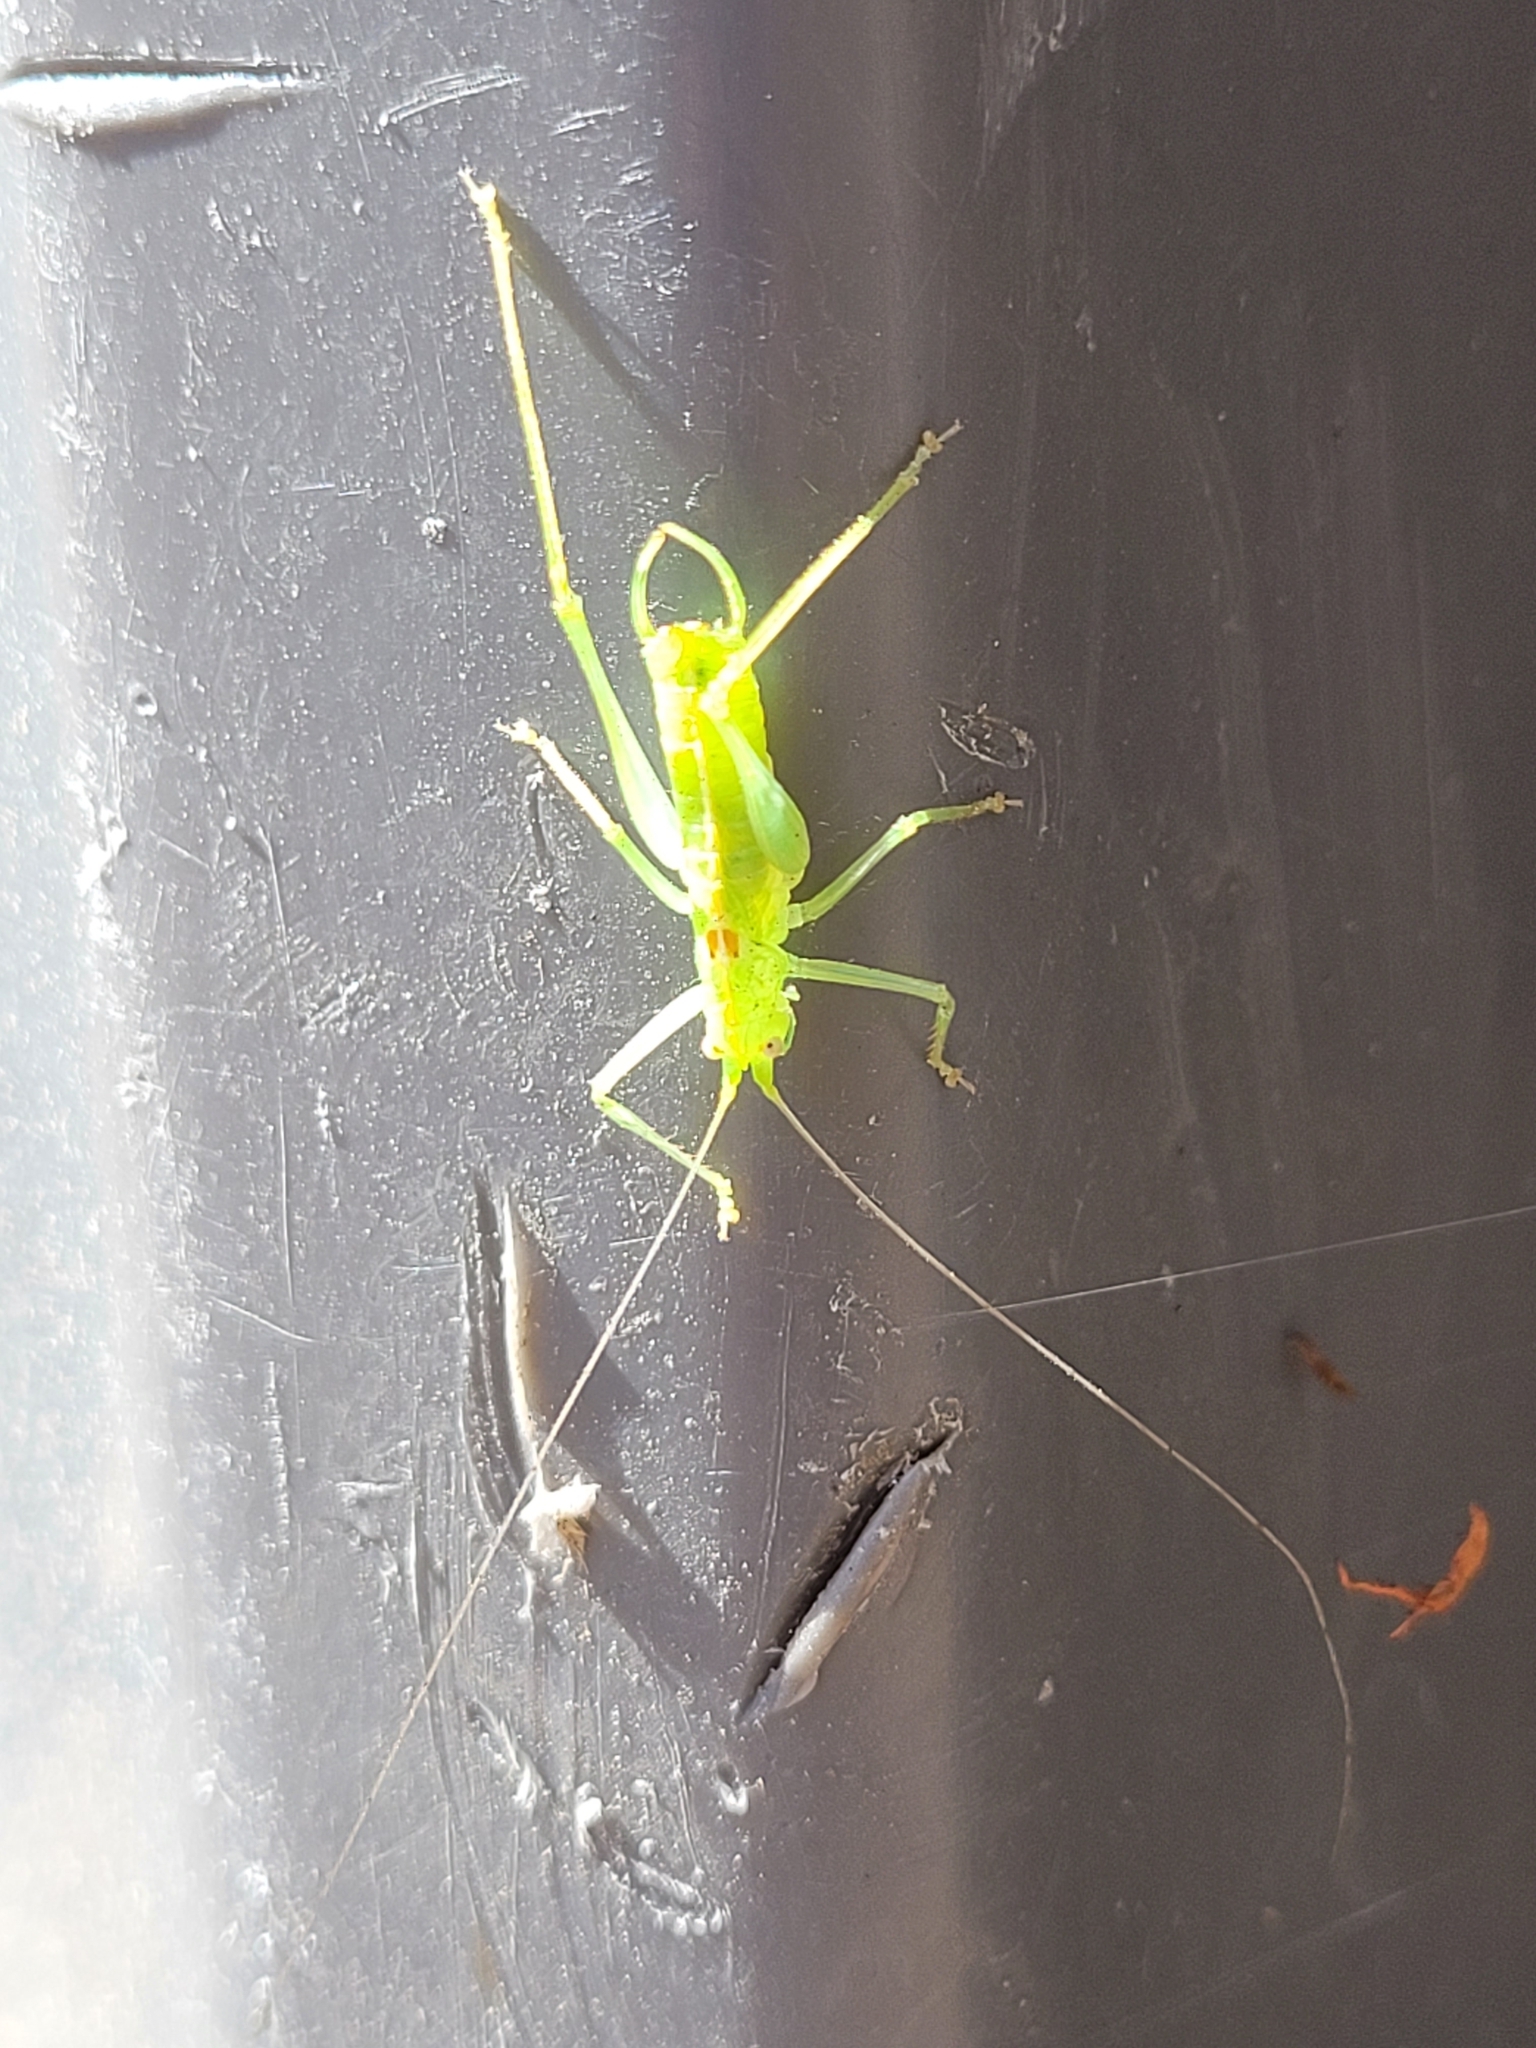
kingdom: Animalia
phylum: Arthropoda
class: Insecta
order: Orthoptera
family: Tettigoniidae
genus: Meconema
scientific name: Meconema meridionale
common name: Southern oak bush-cricket
